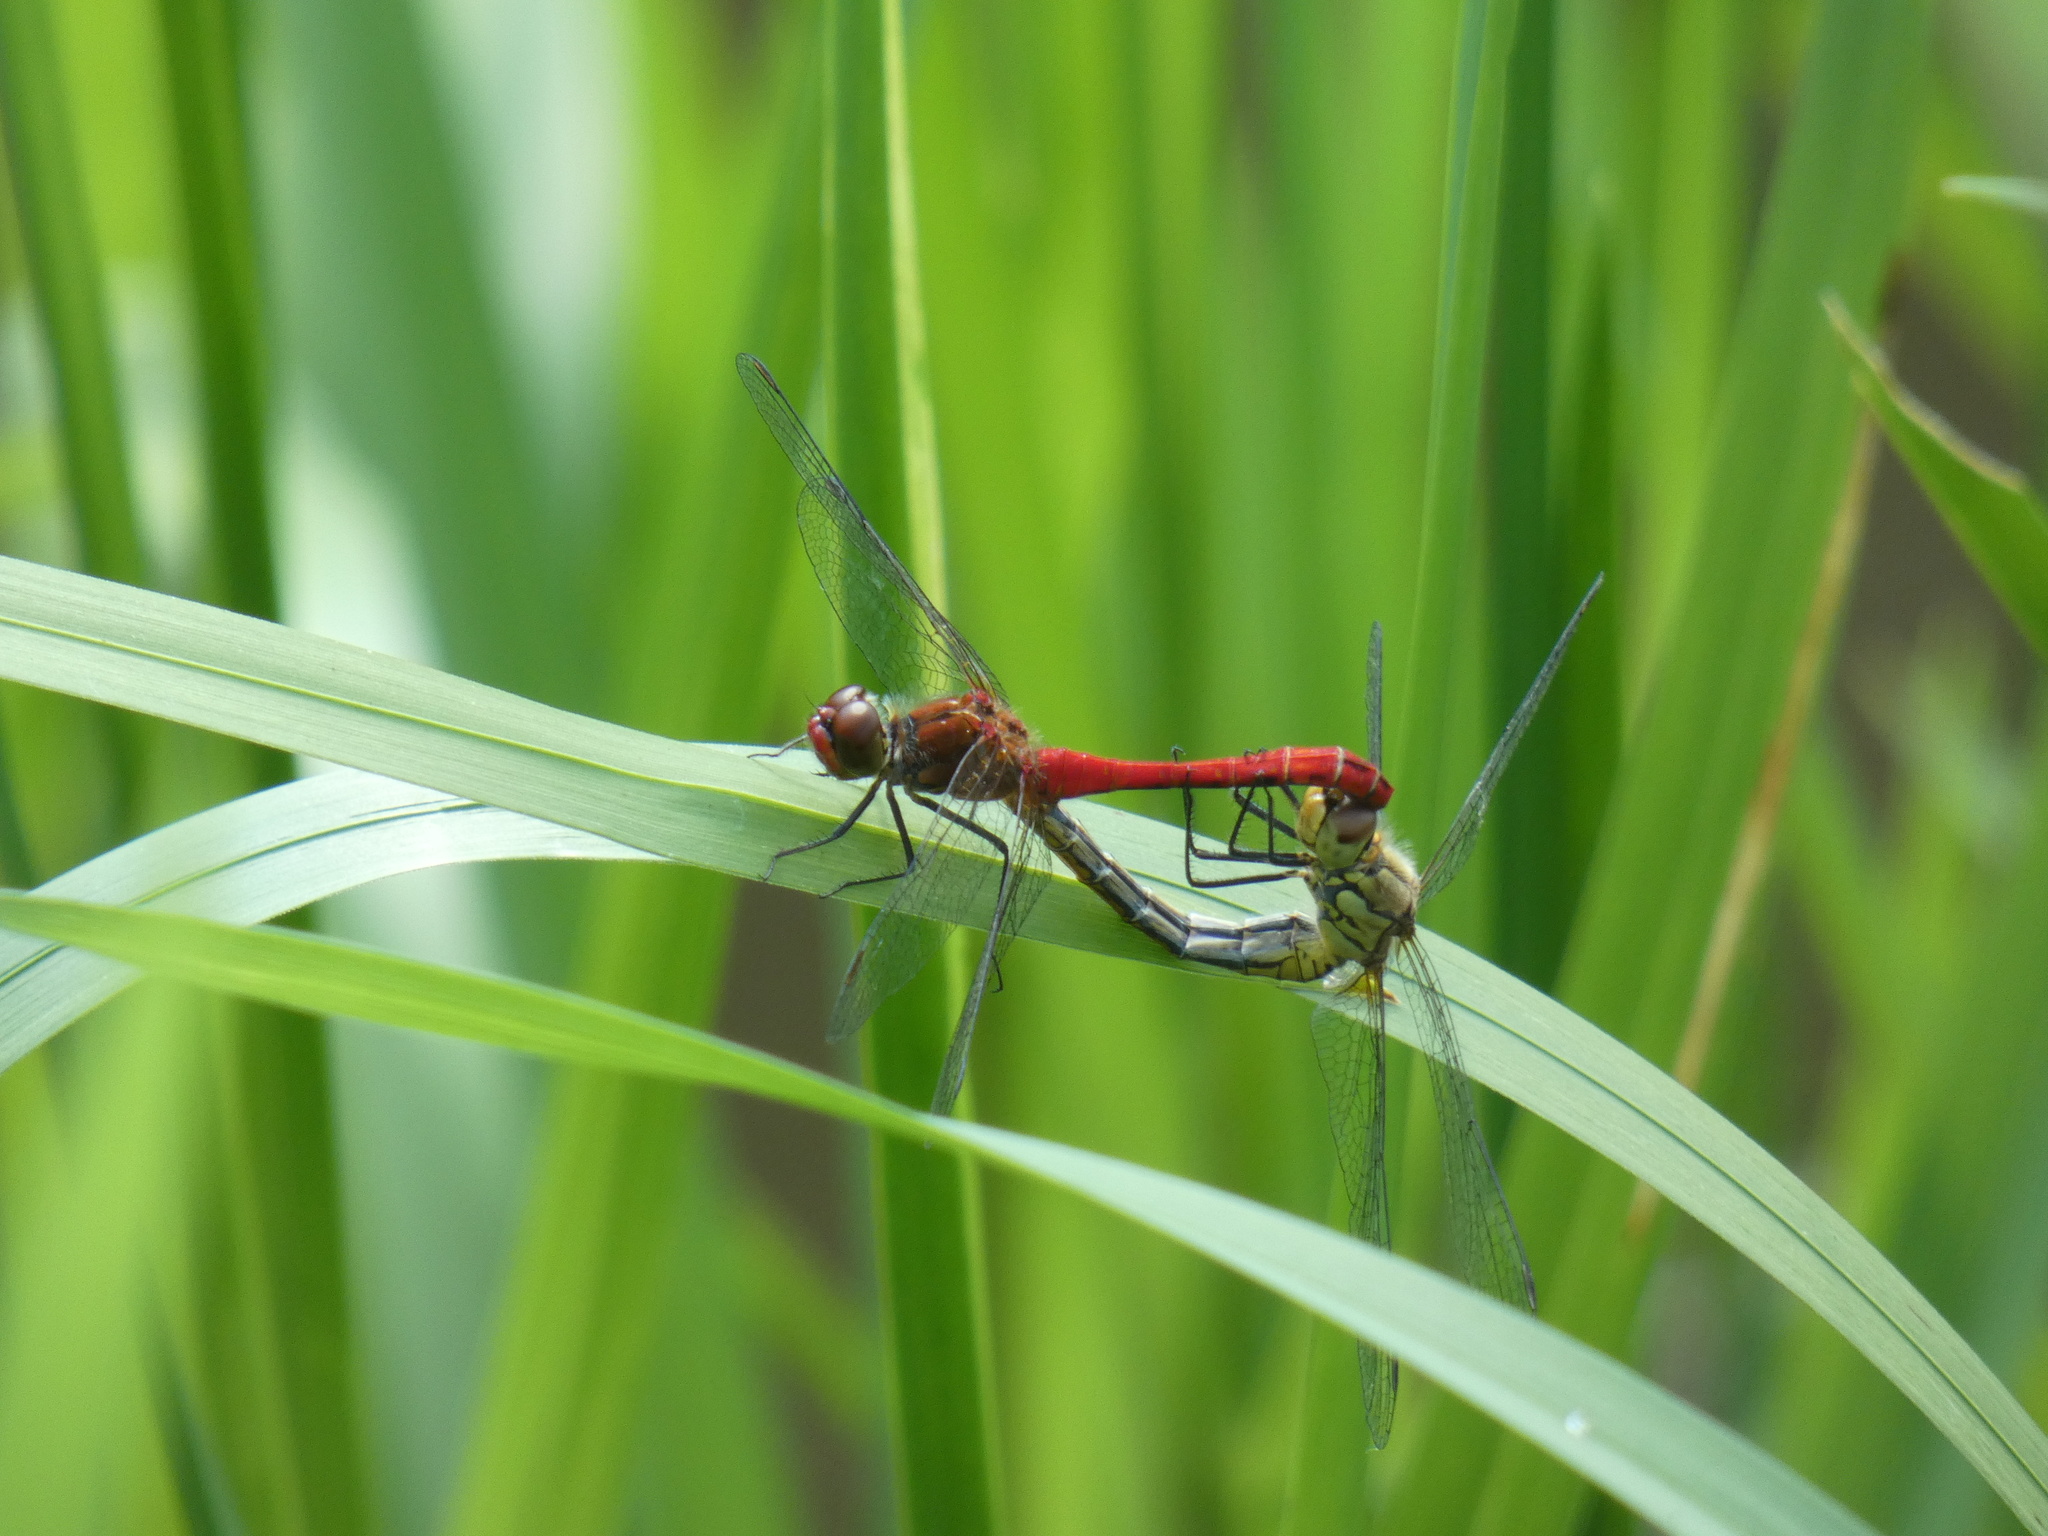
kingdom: Animalia
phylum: Arthropoda
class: Insecta
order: Odonata
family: Libellulidae
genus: Sympetrum
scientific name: Sympetrum sanguineum
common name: Ruddy darter
